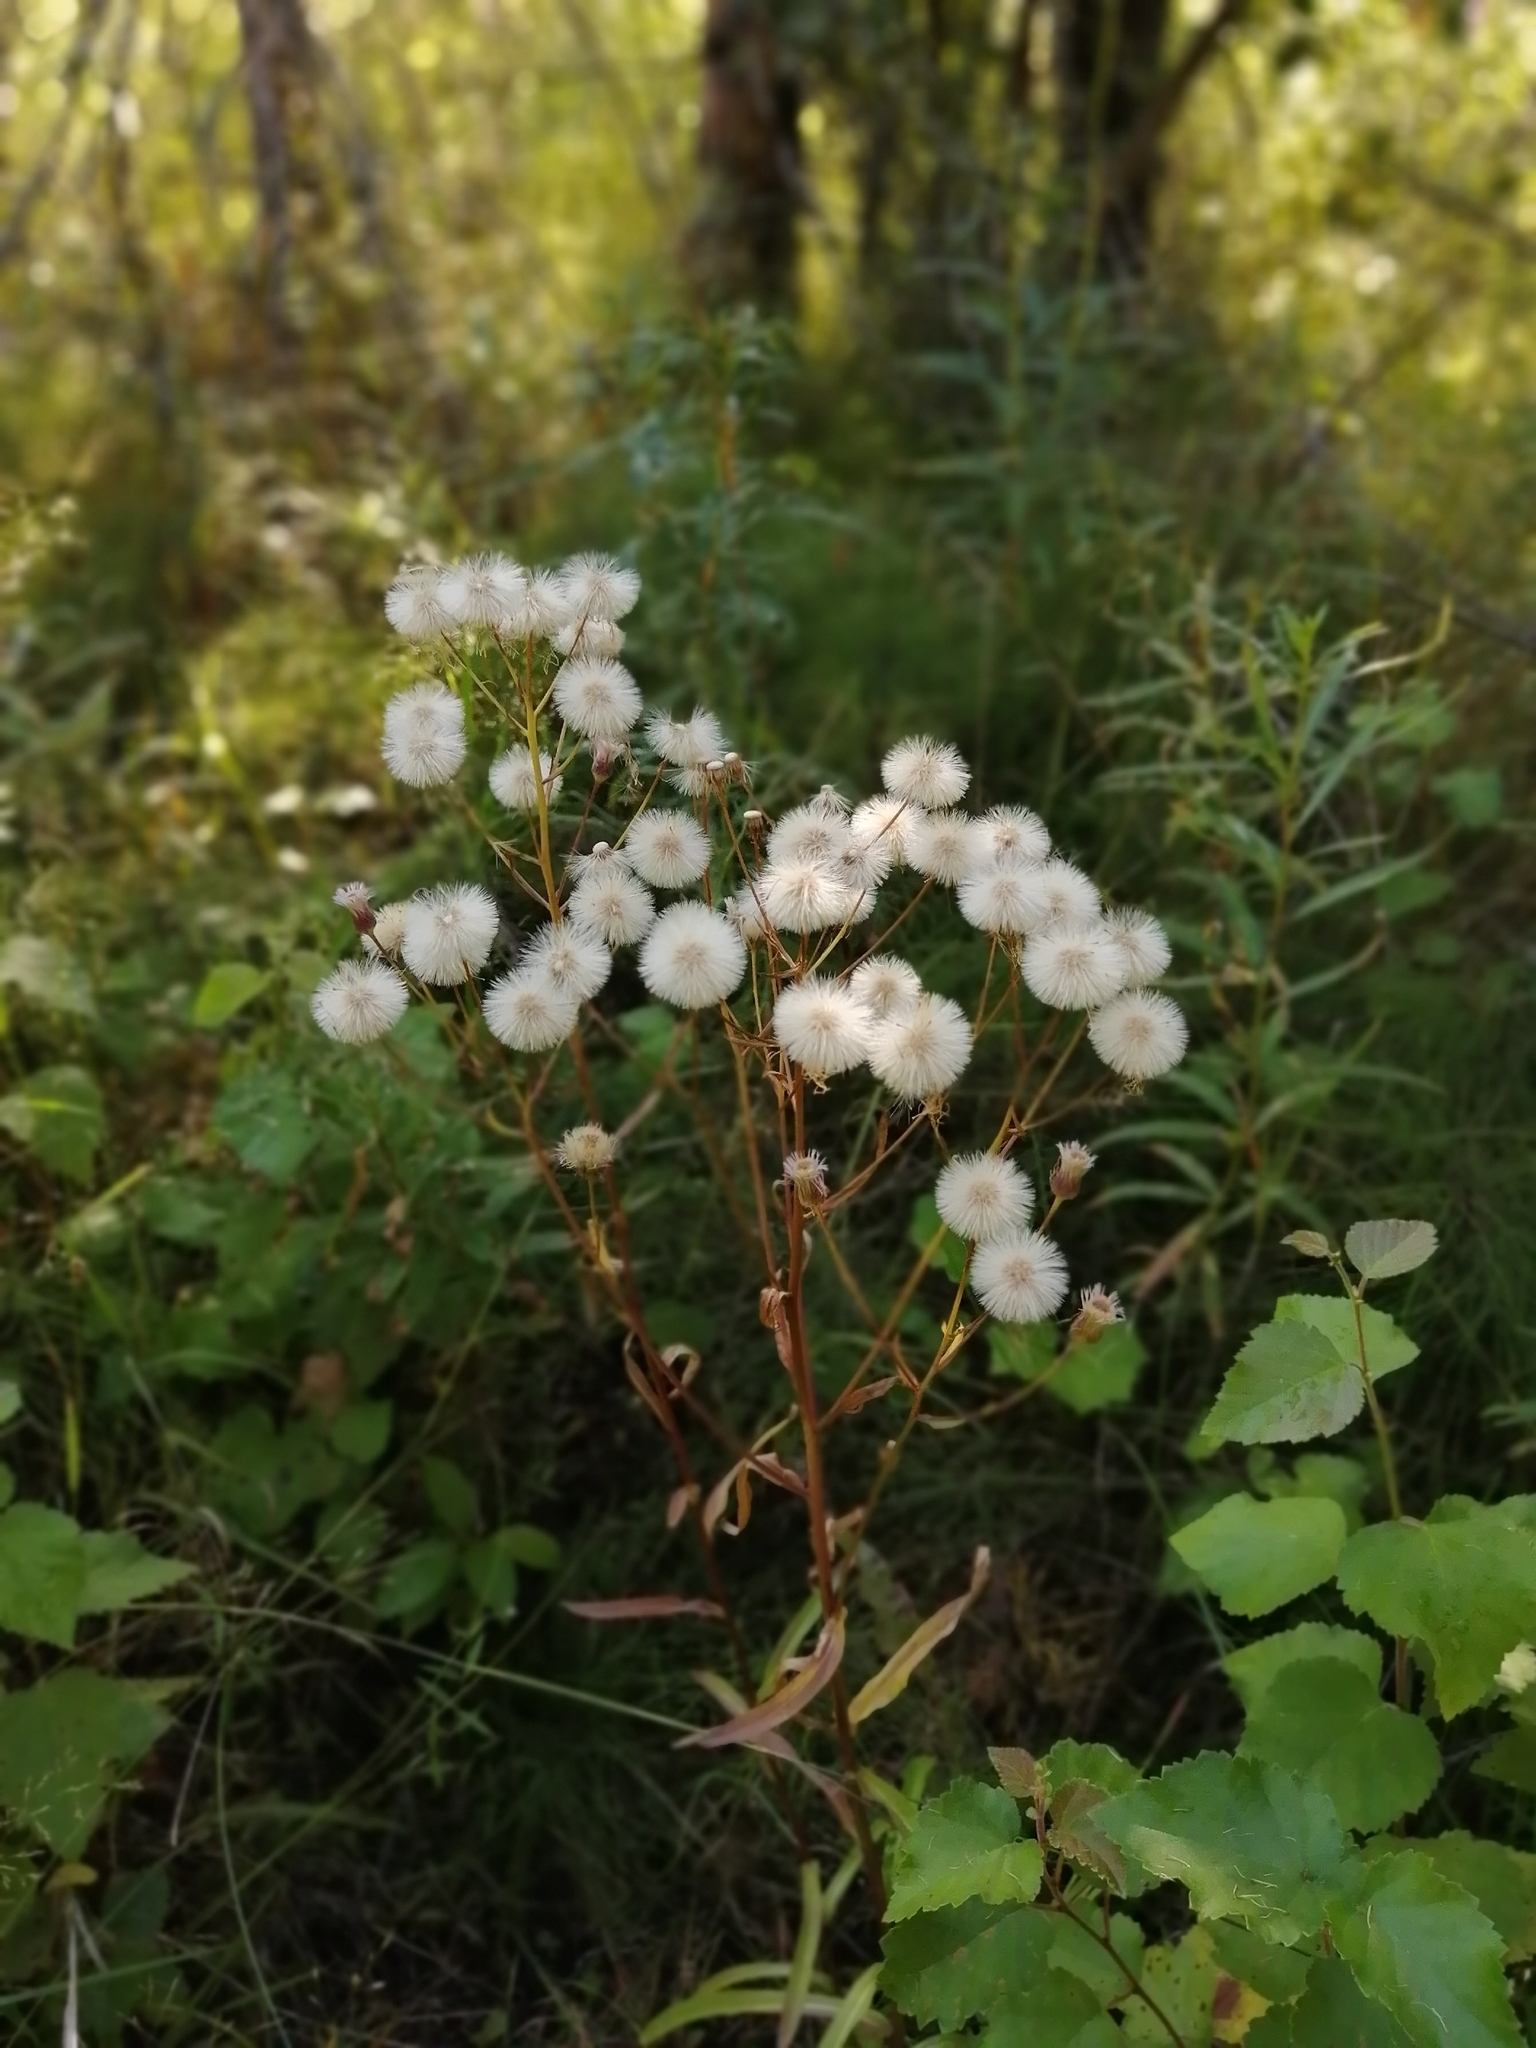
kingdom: Plantae
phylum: Tracheophyta
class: Magnoliopsida
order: Asterales
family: Asteraceae
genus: Erigeron
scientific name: Erigeron acris
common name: Blue fleabane
